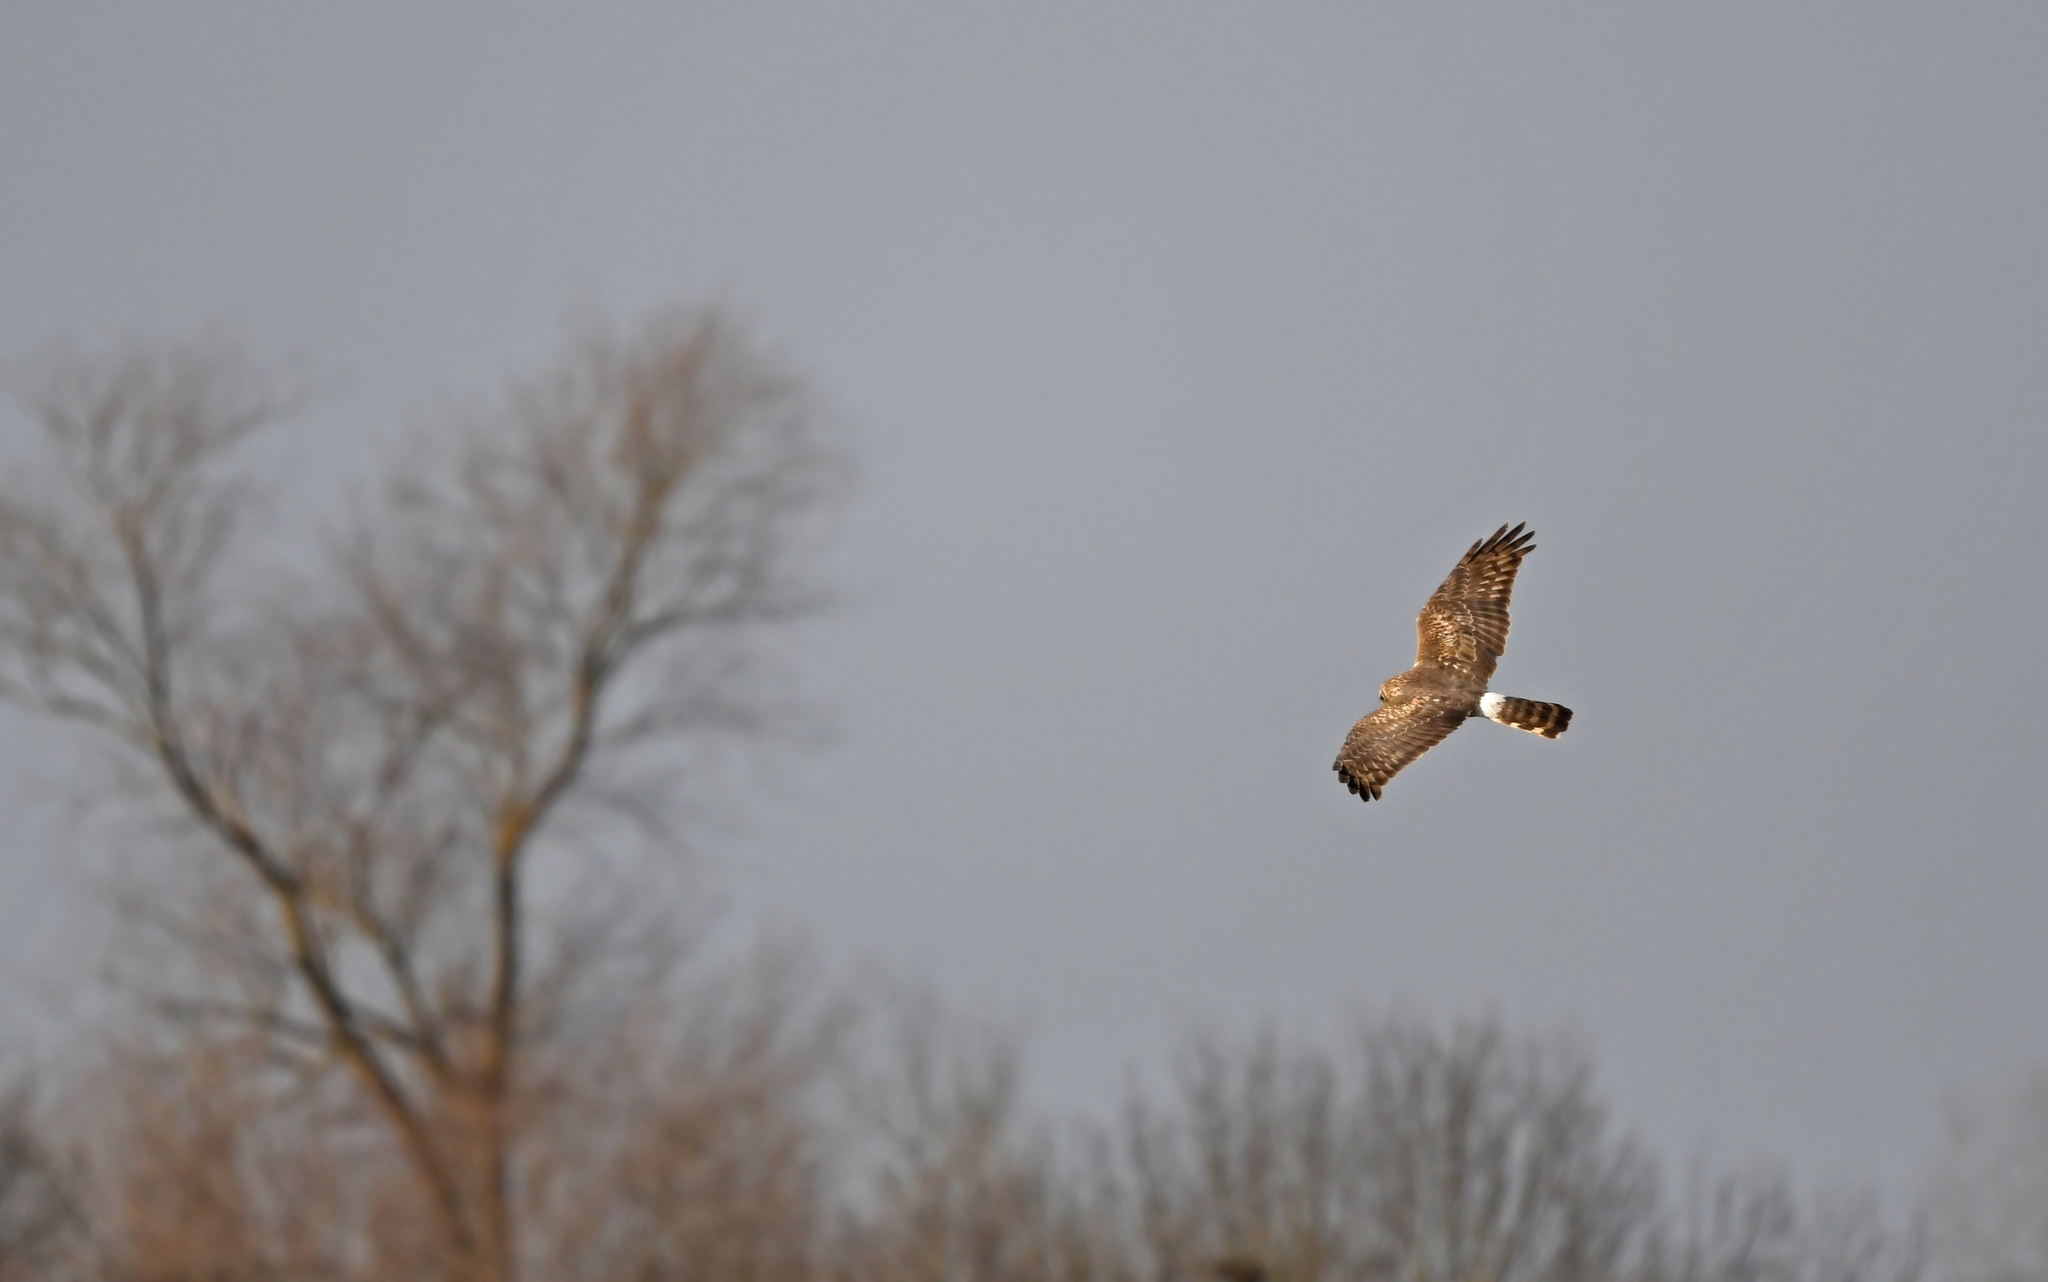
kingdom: Animalia
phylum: Chordata
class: Aves
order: Accipitriformes
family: Accipitridae
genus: Circus
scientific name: Circus cyaneus
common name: Hen harrier
